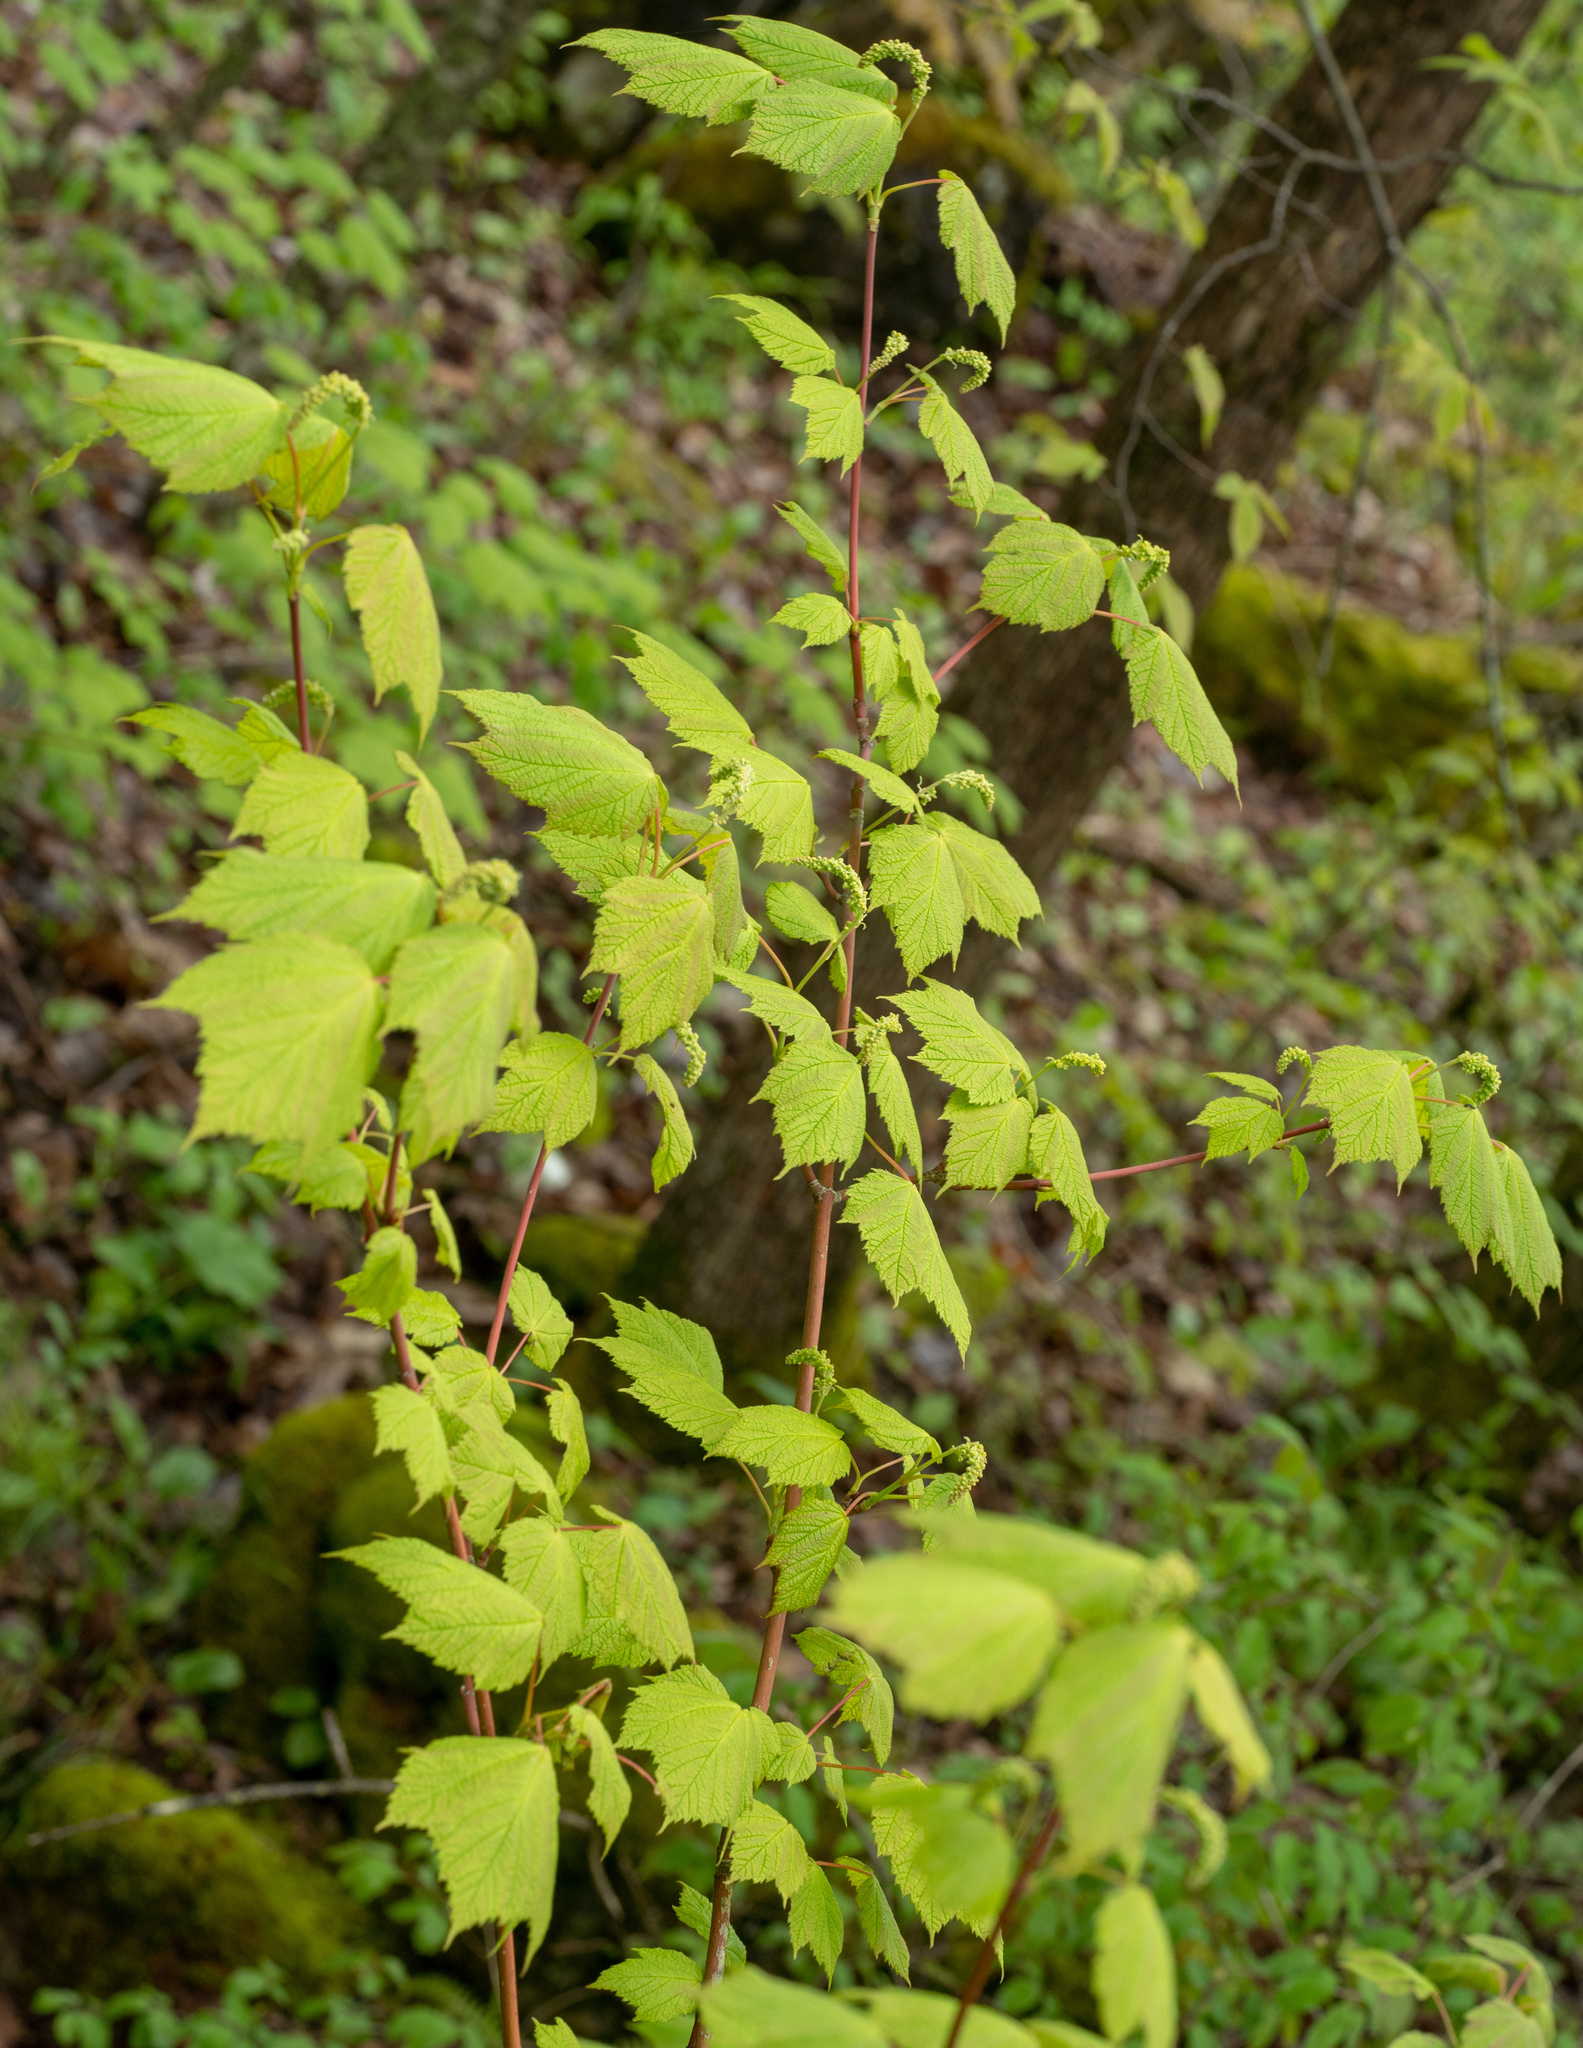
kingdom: Plantae
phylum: Tracheophyta
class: Magnoliopsida
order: Sapindales
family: Sapindaceae
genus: Acer
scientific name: Acer spicatum
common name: Mountain maple
